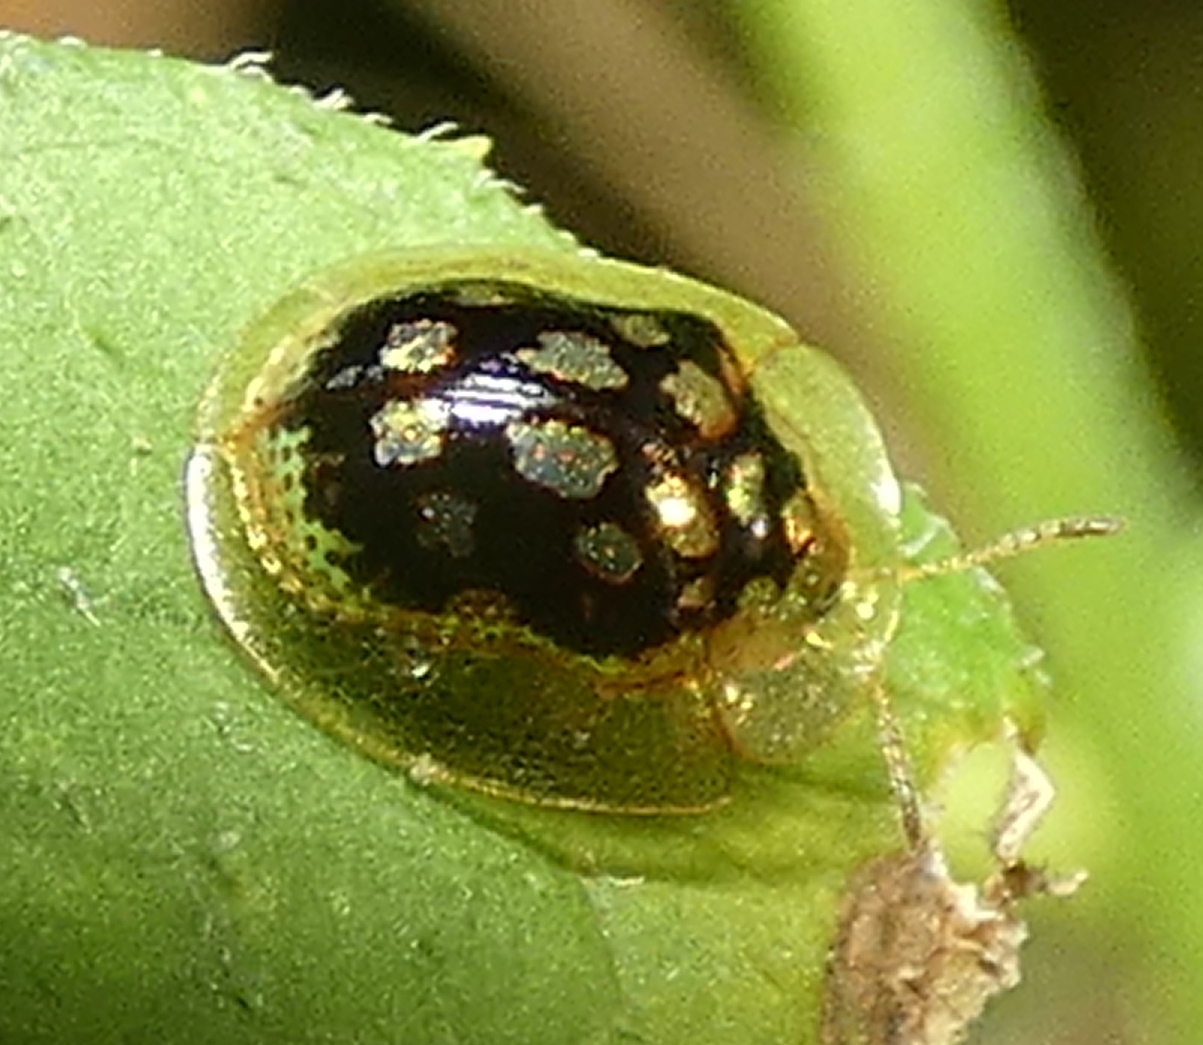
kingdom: Animalia
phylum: Arthropoda
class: Insecta
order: Coleoptera
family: Chrysomelidae
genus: Plagiometriona
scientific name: Plagiometriona microcera
